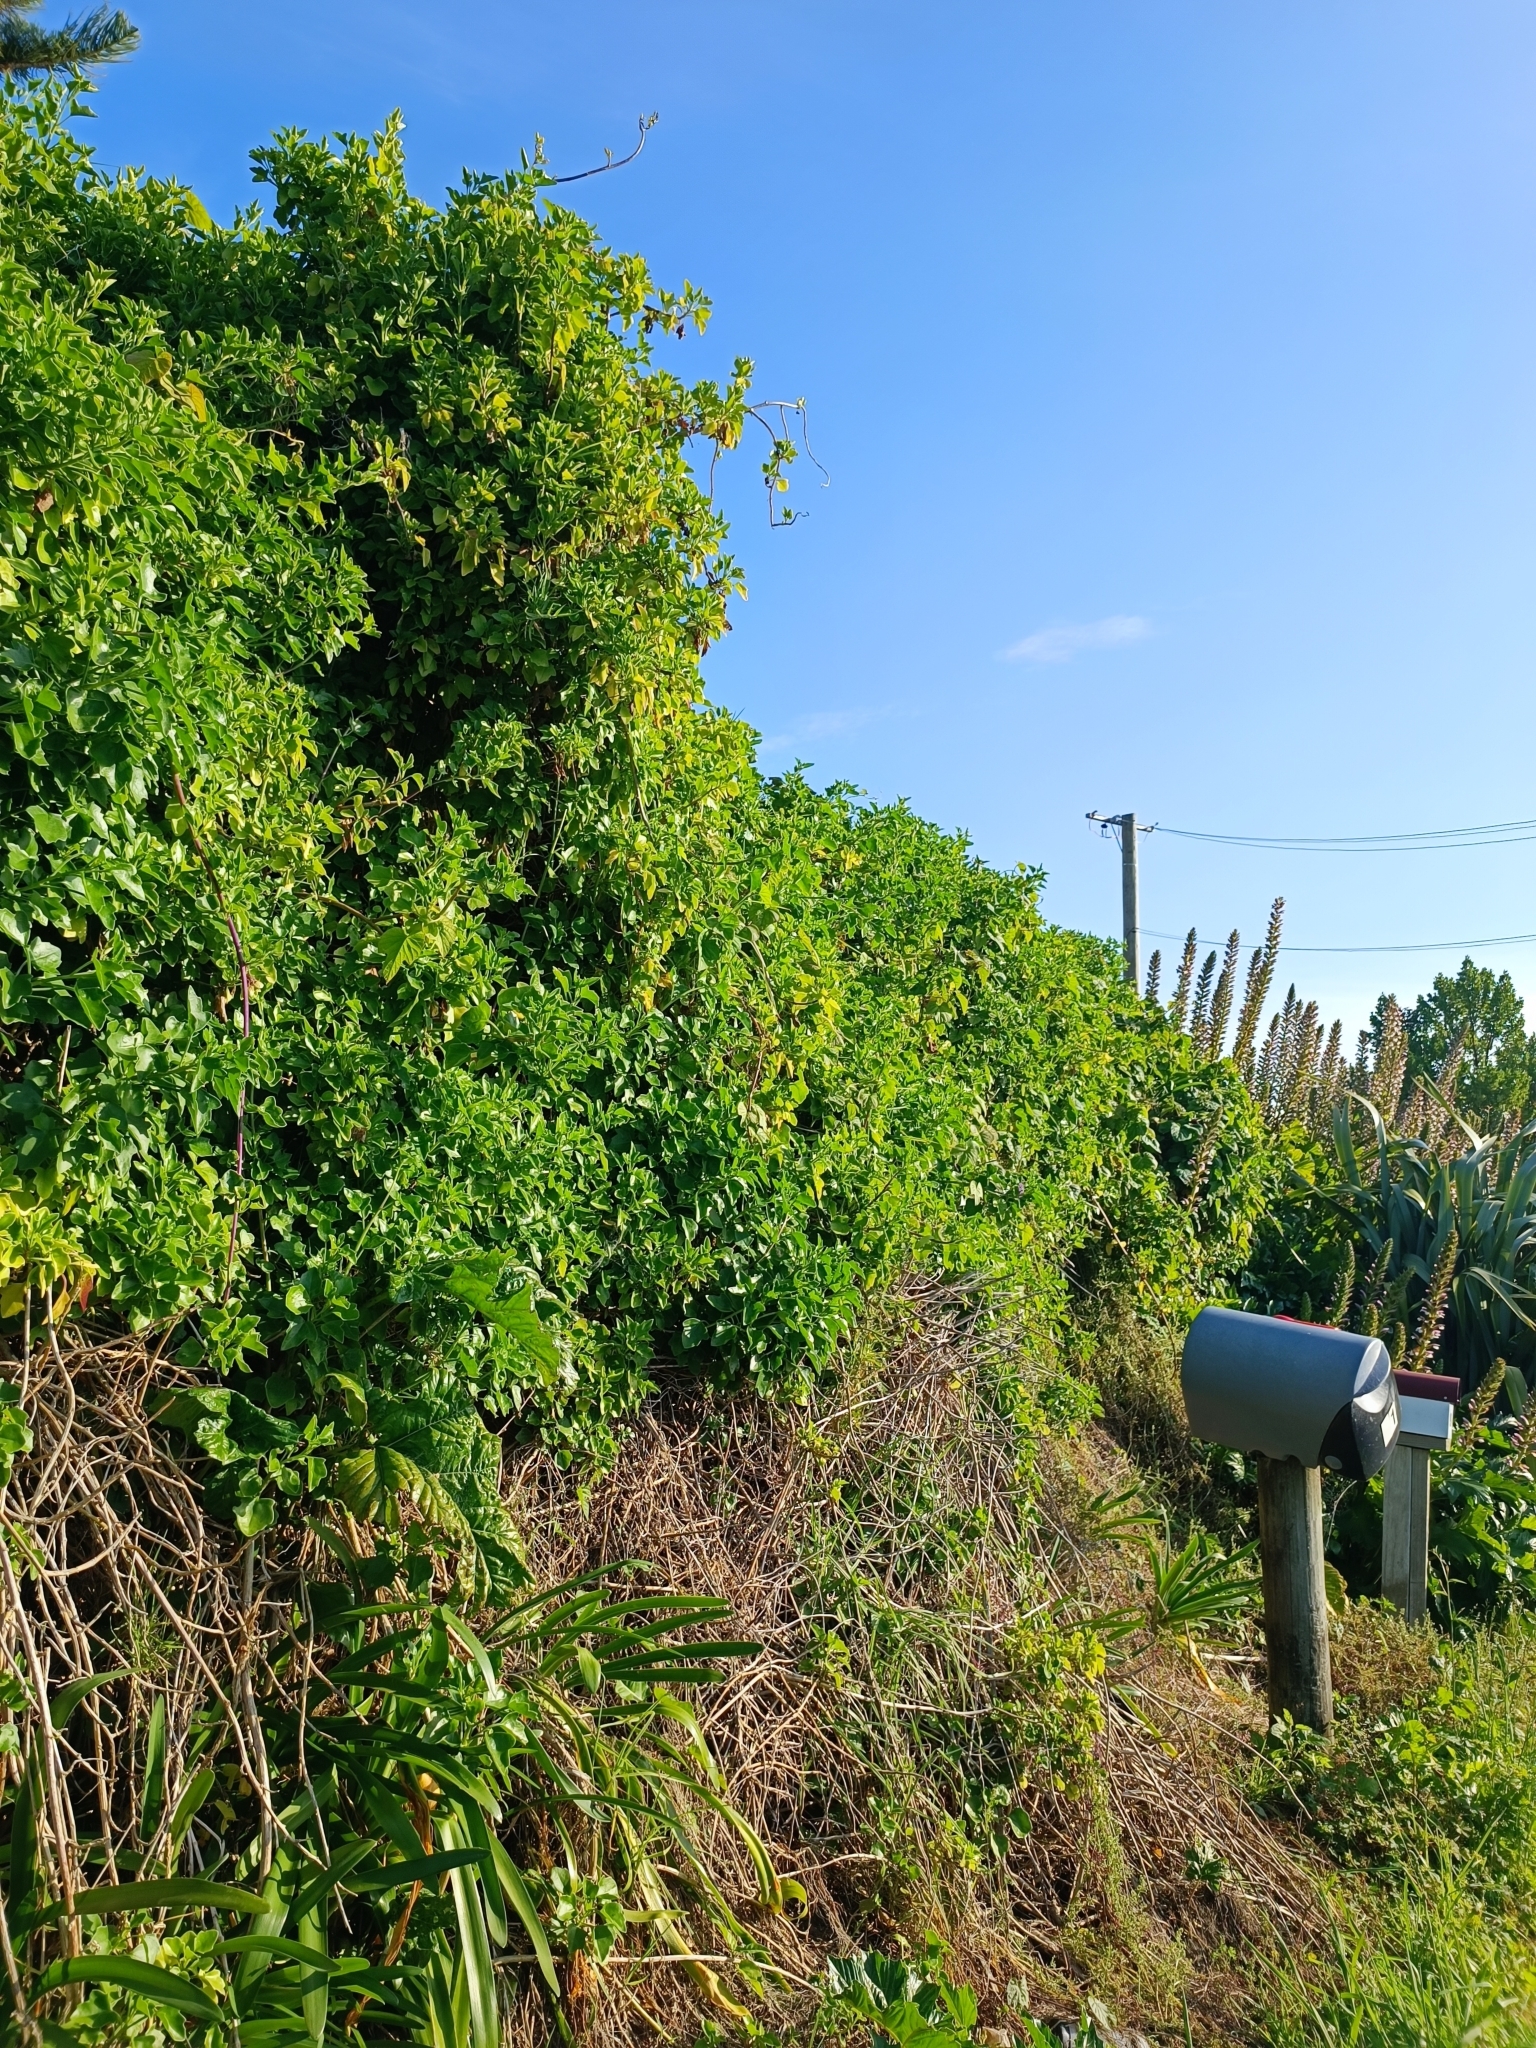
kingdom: Plantae
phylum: Tracheophyta
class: Magnoliopsida
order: Asterales
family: Asteraceae
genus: Senecio
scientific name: Senecio angulatus
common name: Climbing groundsel
